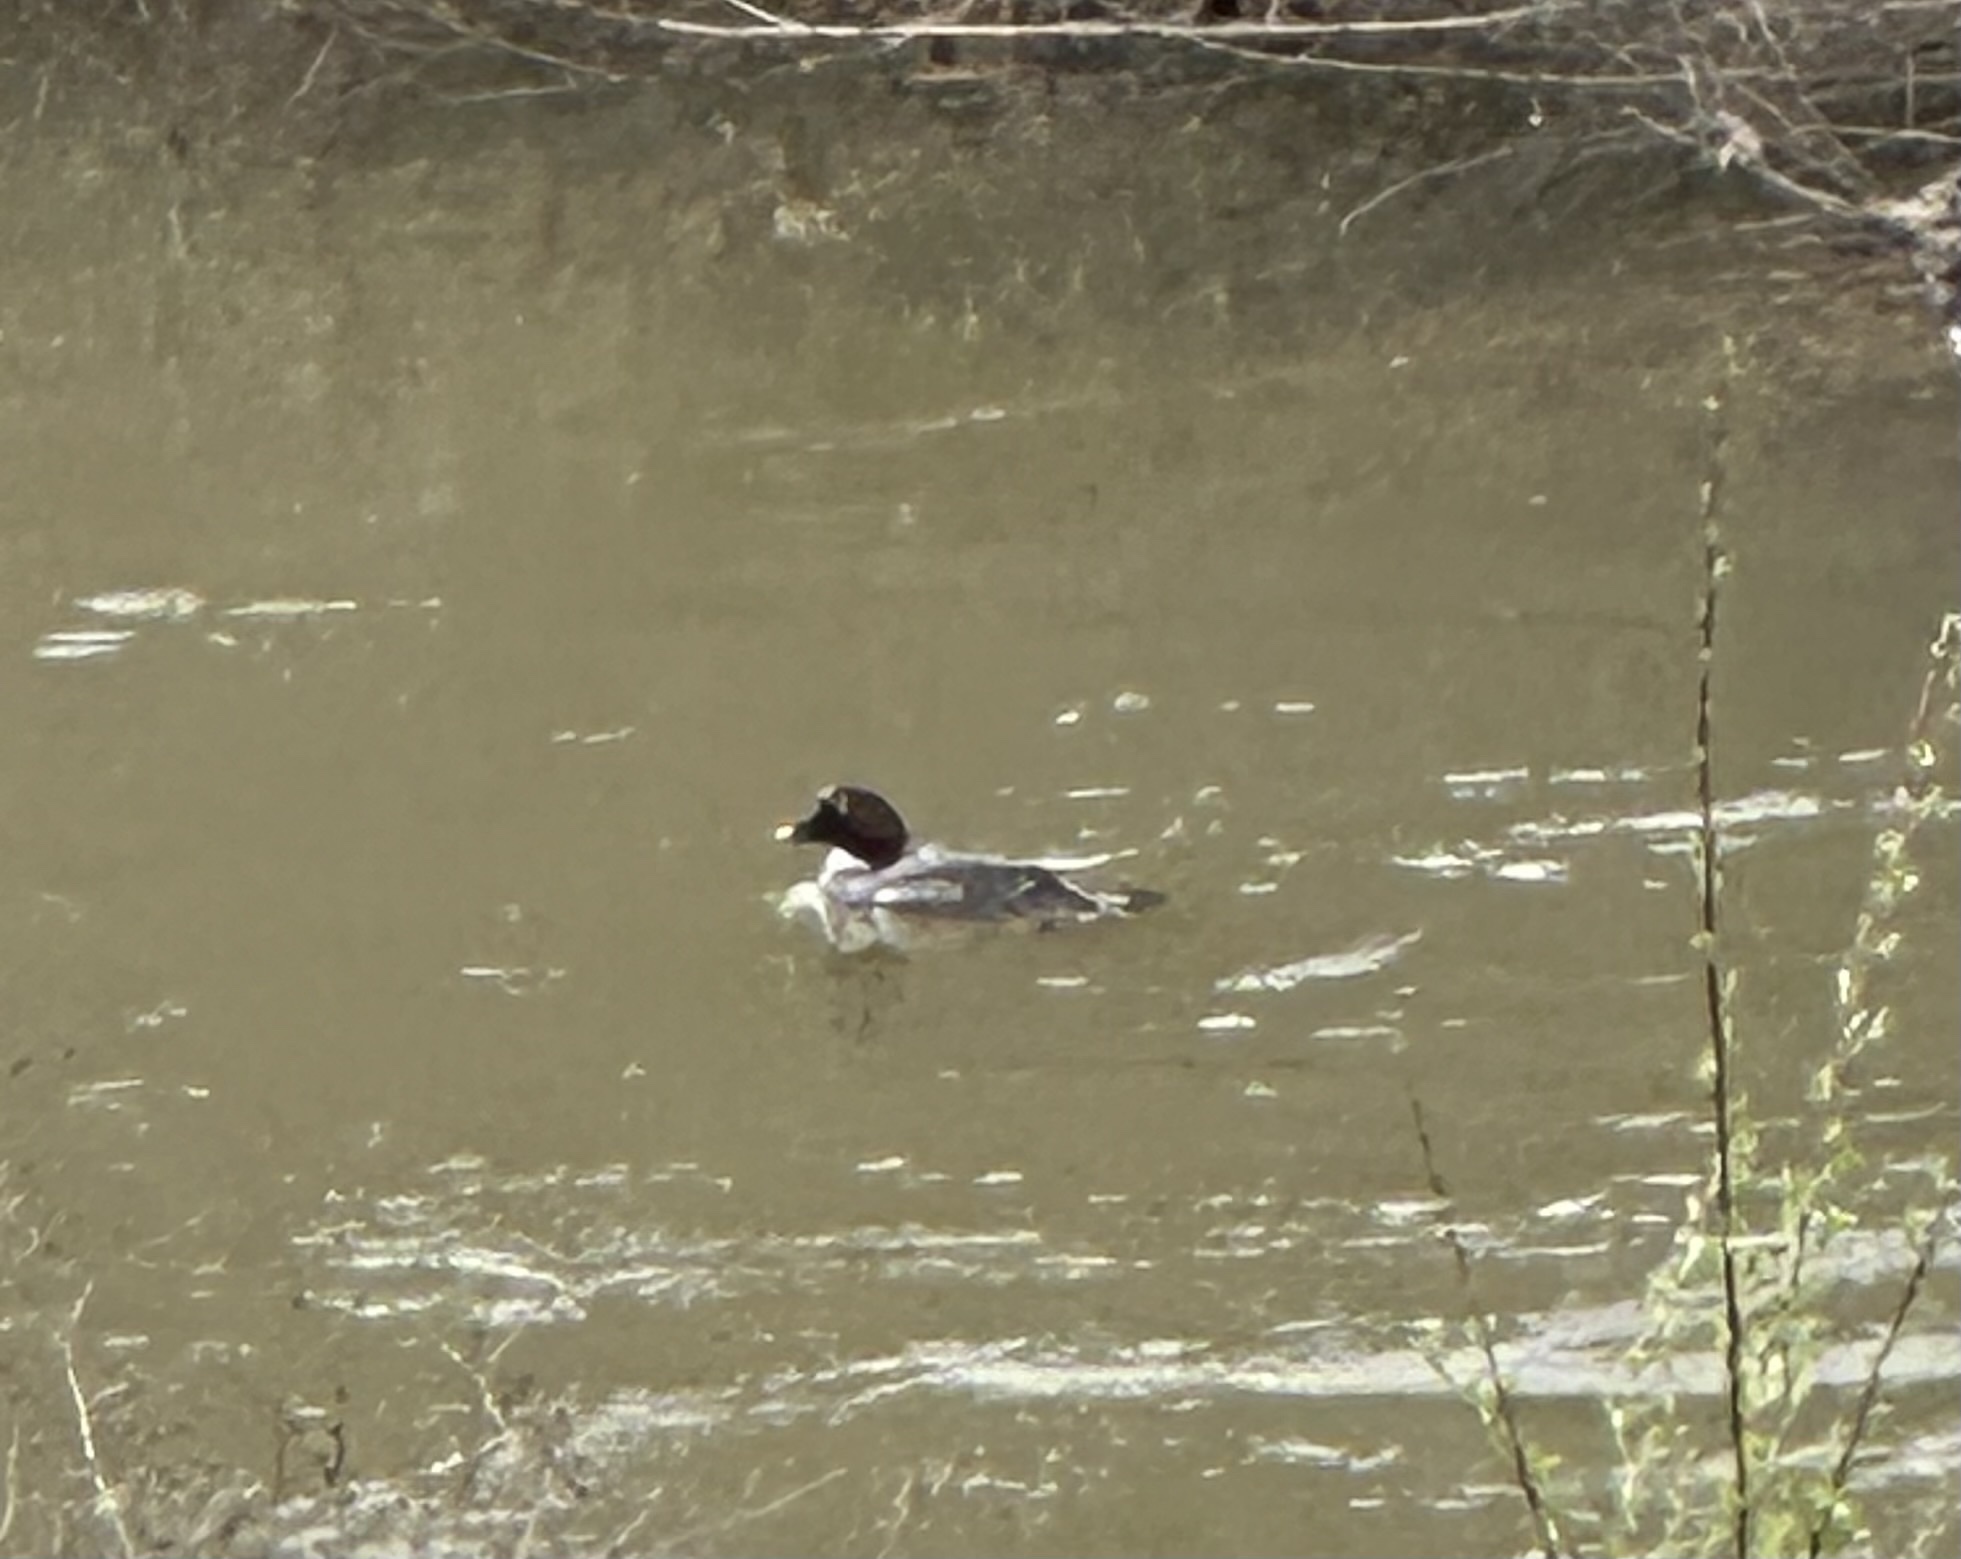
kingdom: Animalia
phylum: Chordata
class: Aves
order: Anseriformes
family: Anatidae
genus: Bucephala
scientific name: Bucephala clangula
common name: Common goldeneye
